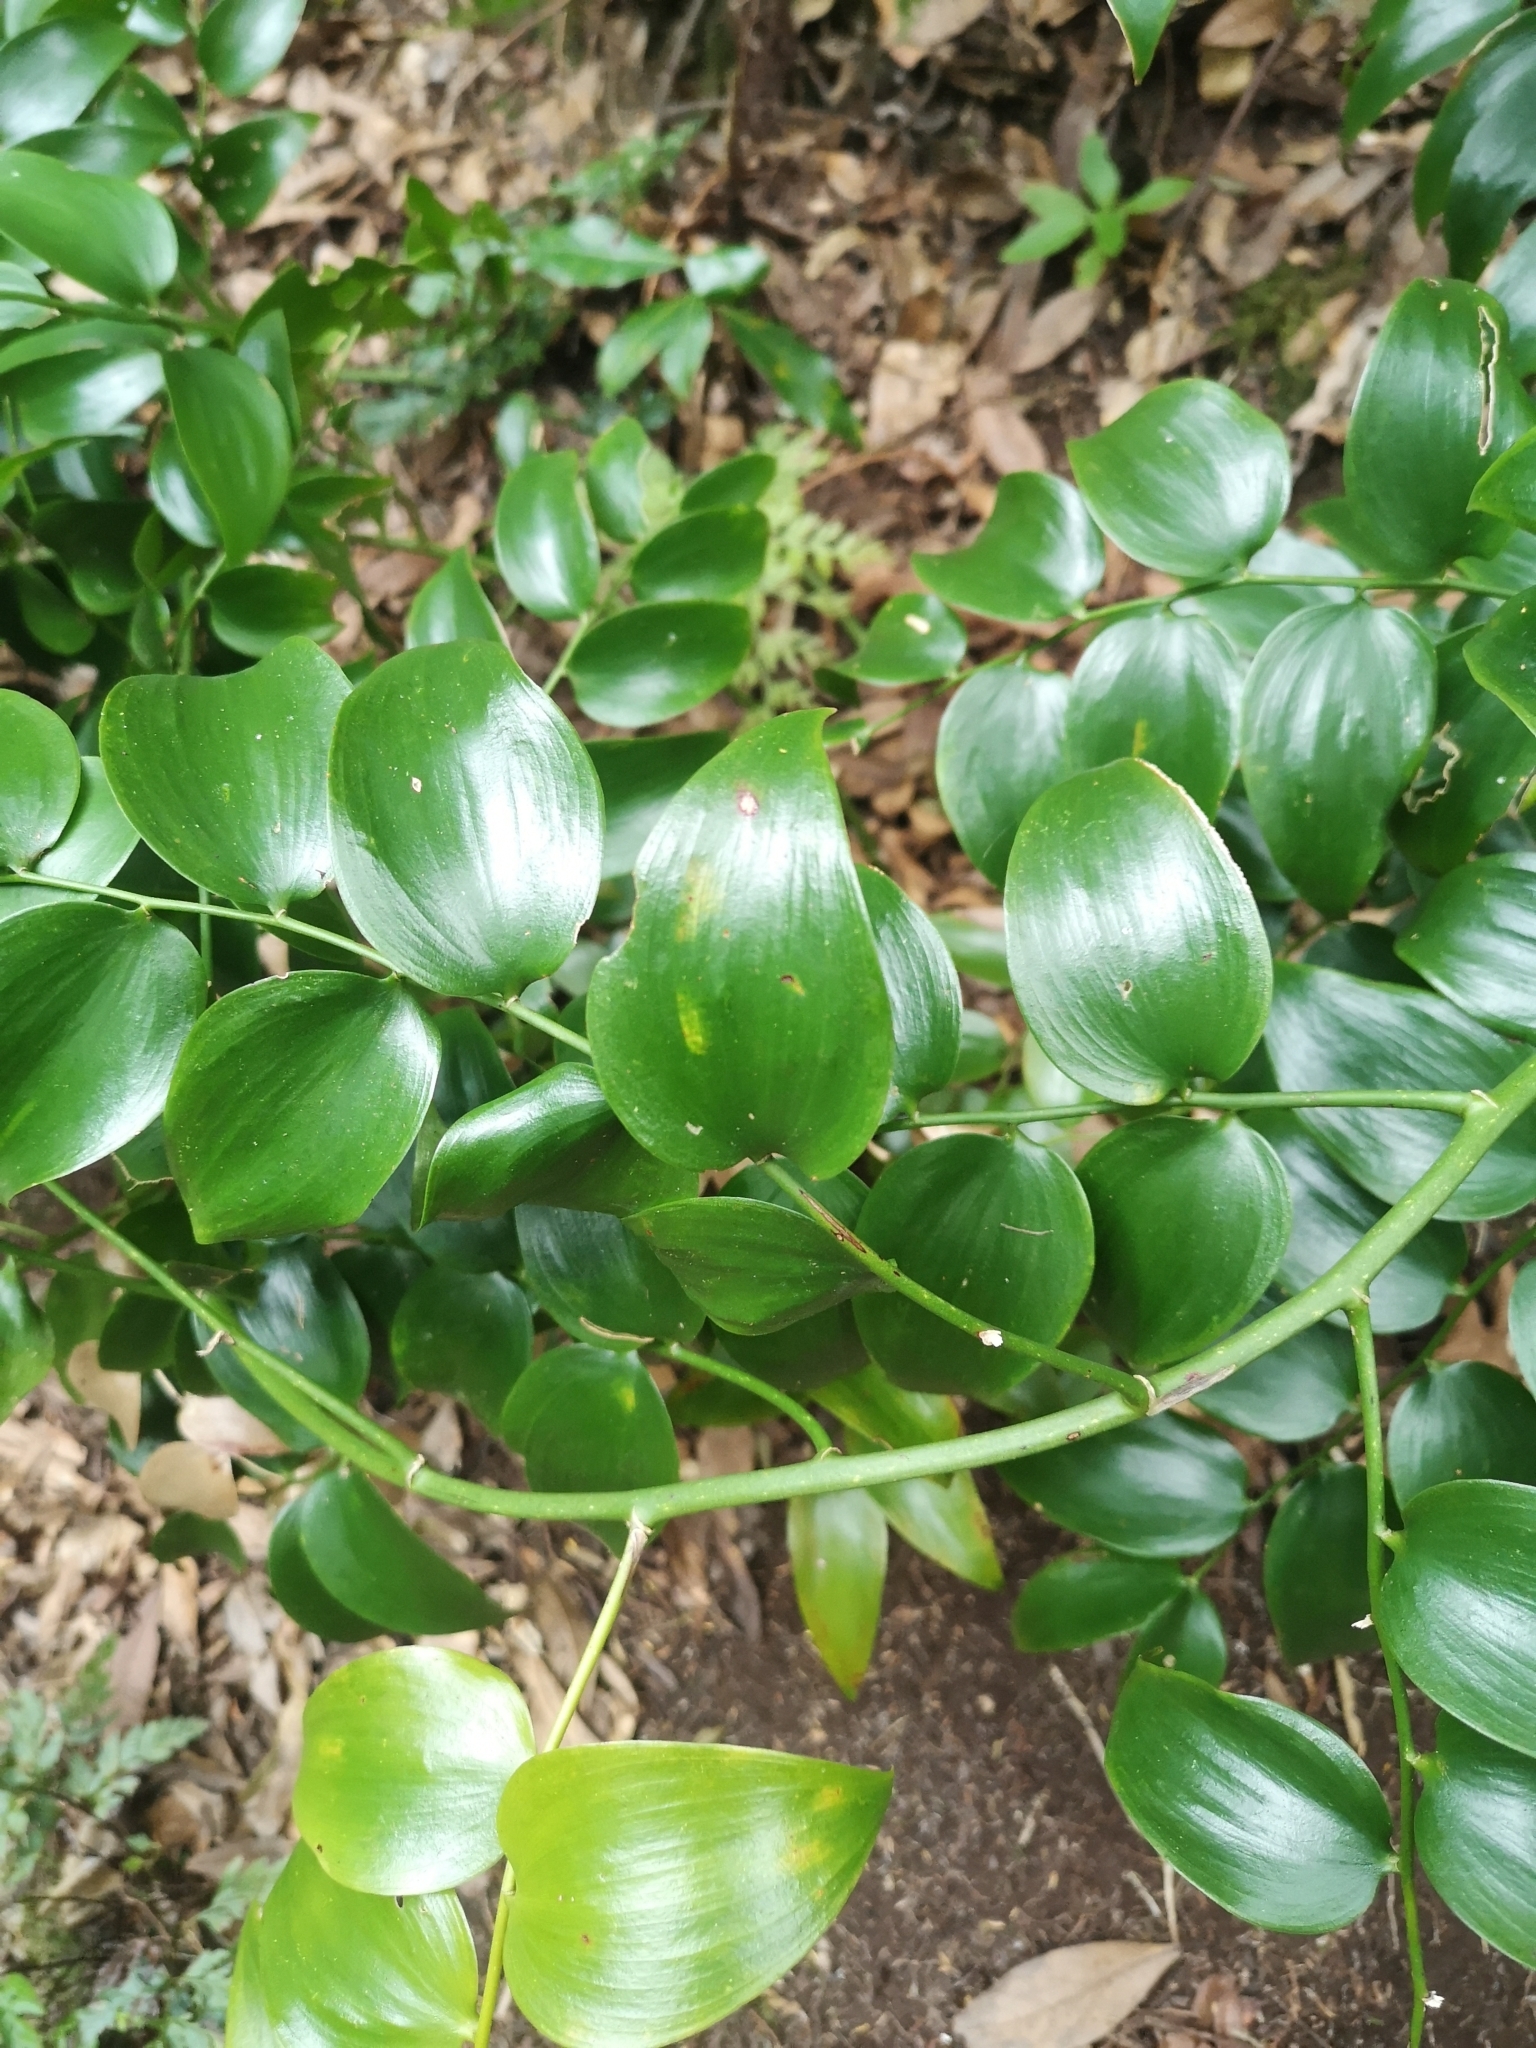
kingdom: Plantae
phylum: Tracheophyta
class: Liliopsida
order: Asparagales
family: Asparagaceae
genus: Semele
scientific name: Semele androgyna
